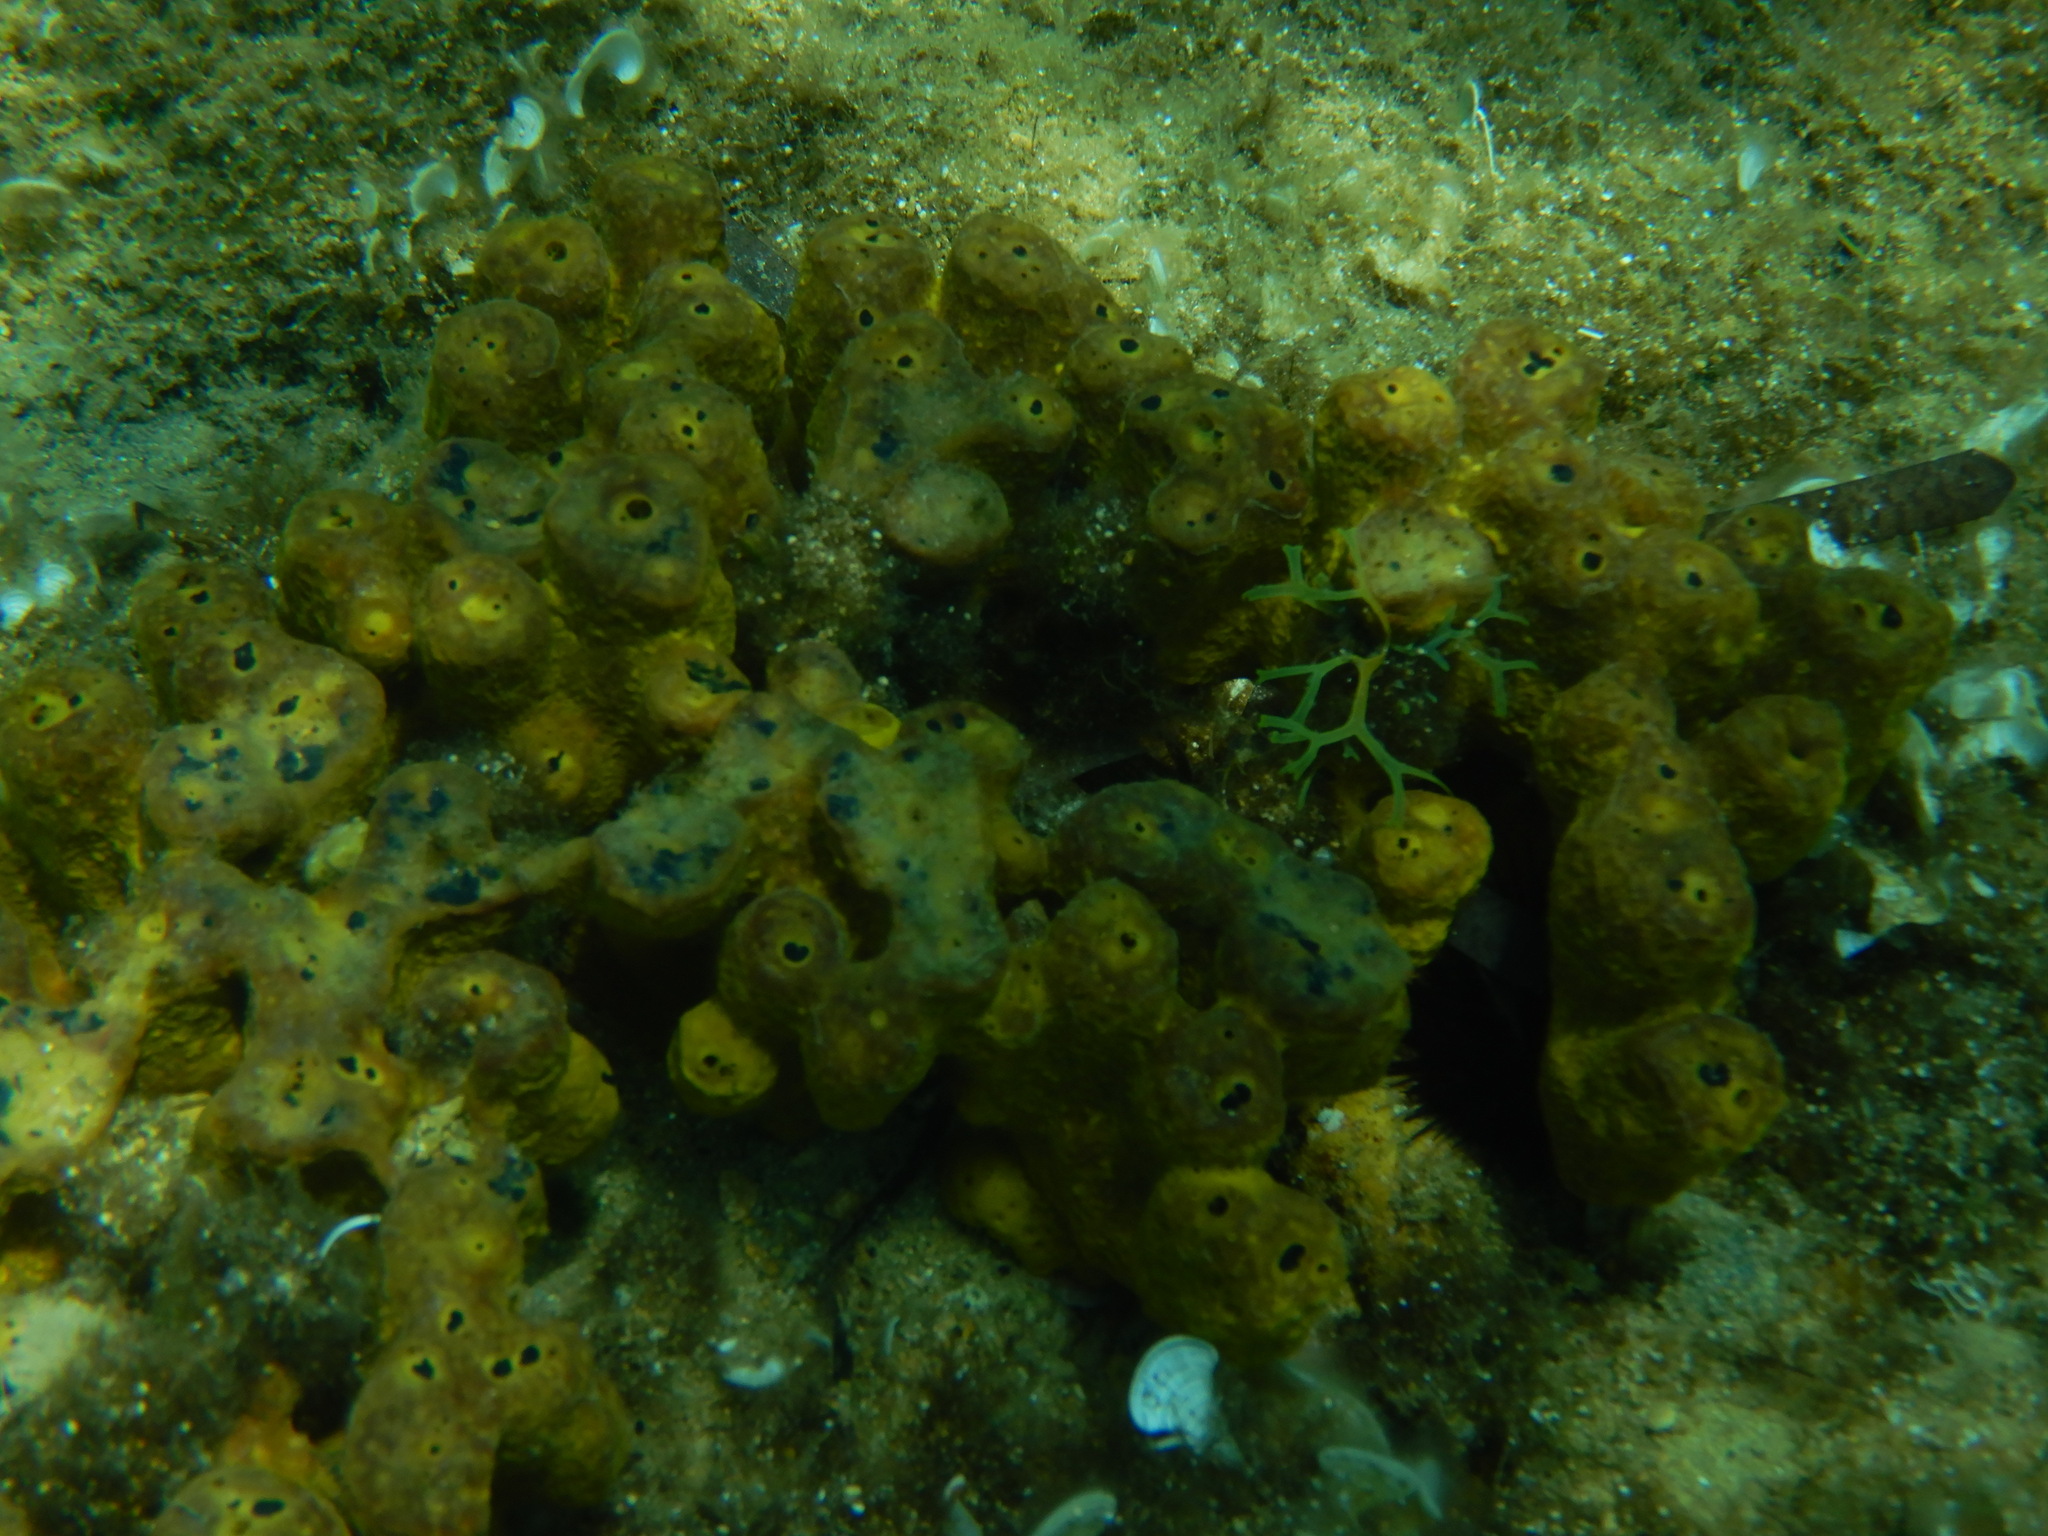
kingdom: Animalia
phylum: Porifera
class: Demospongiae
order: Verongiida
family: Aplysinidae
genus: Aplysina
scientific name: Aplysina aerophoba
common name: Aureate sponge
